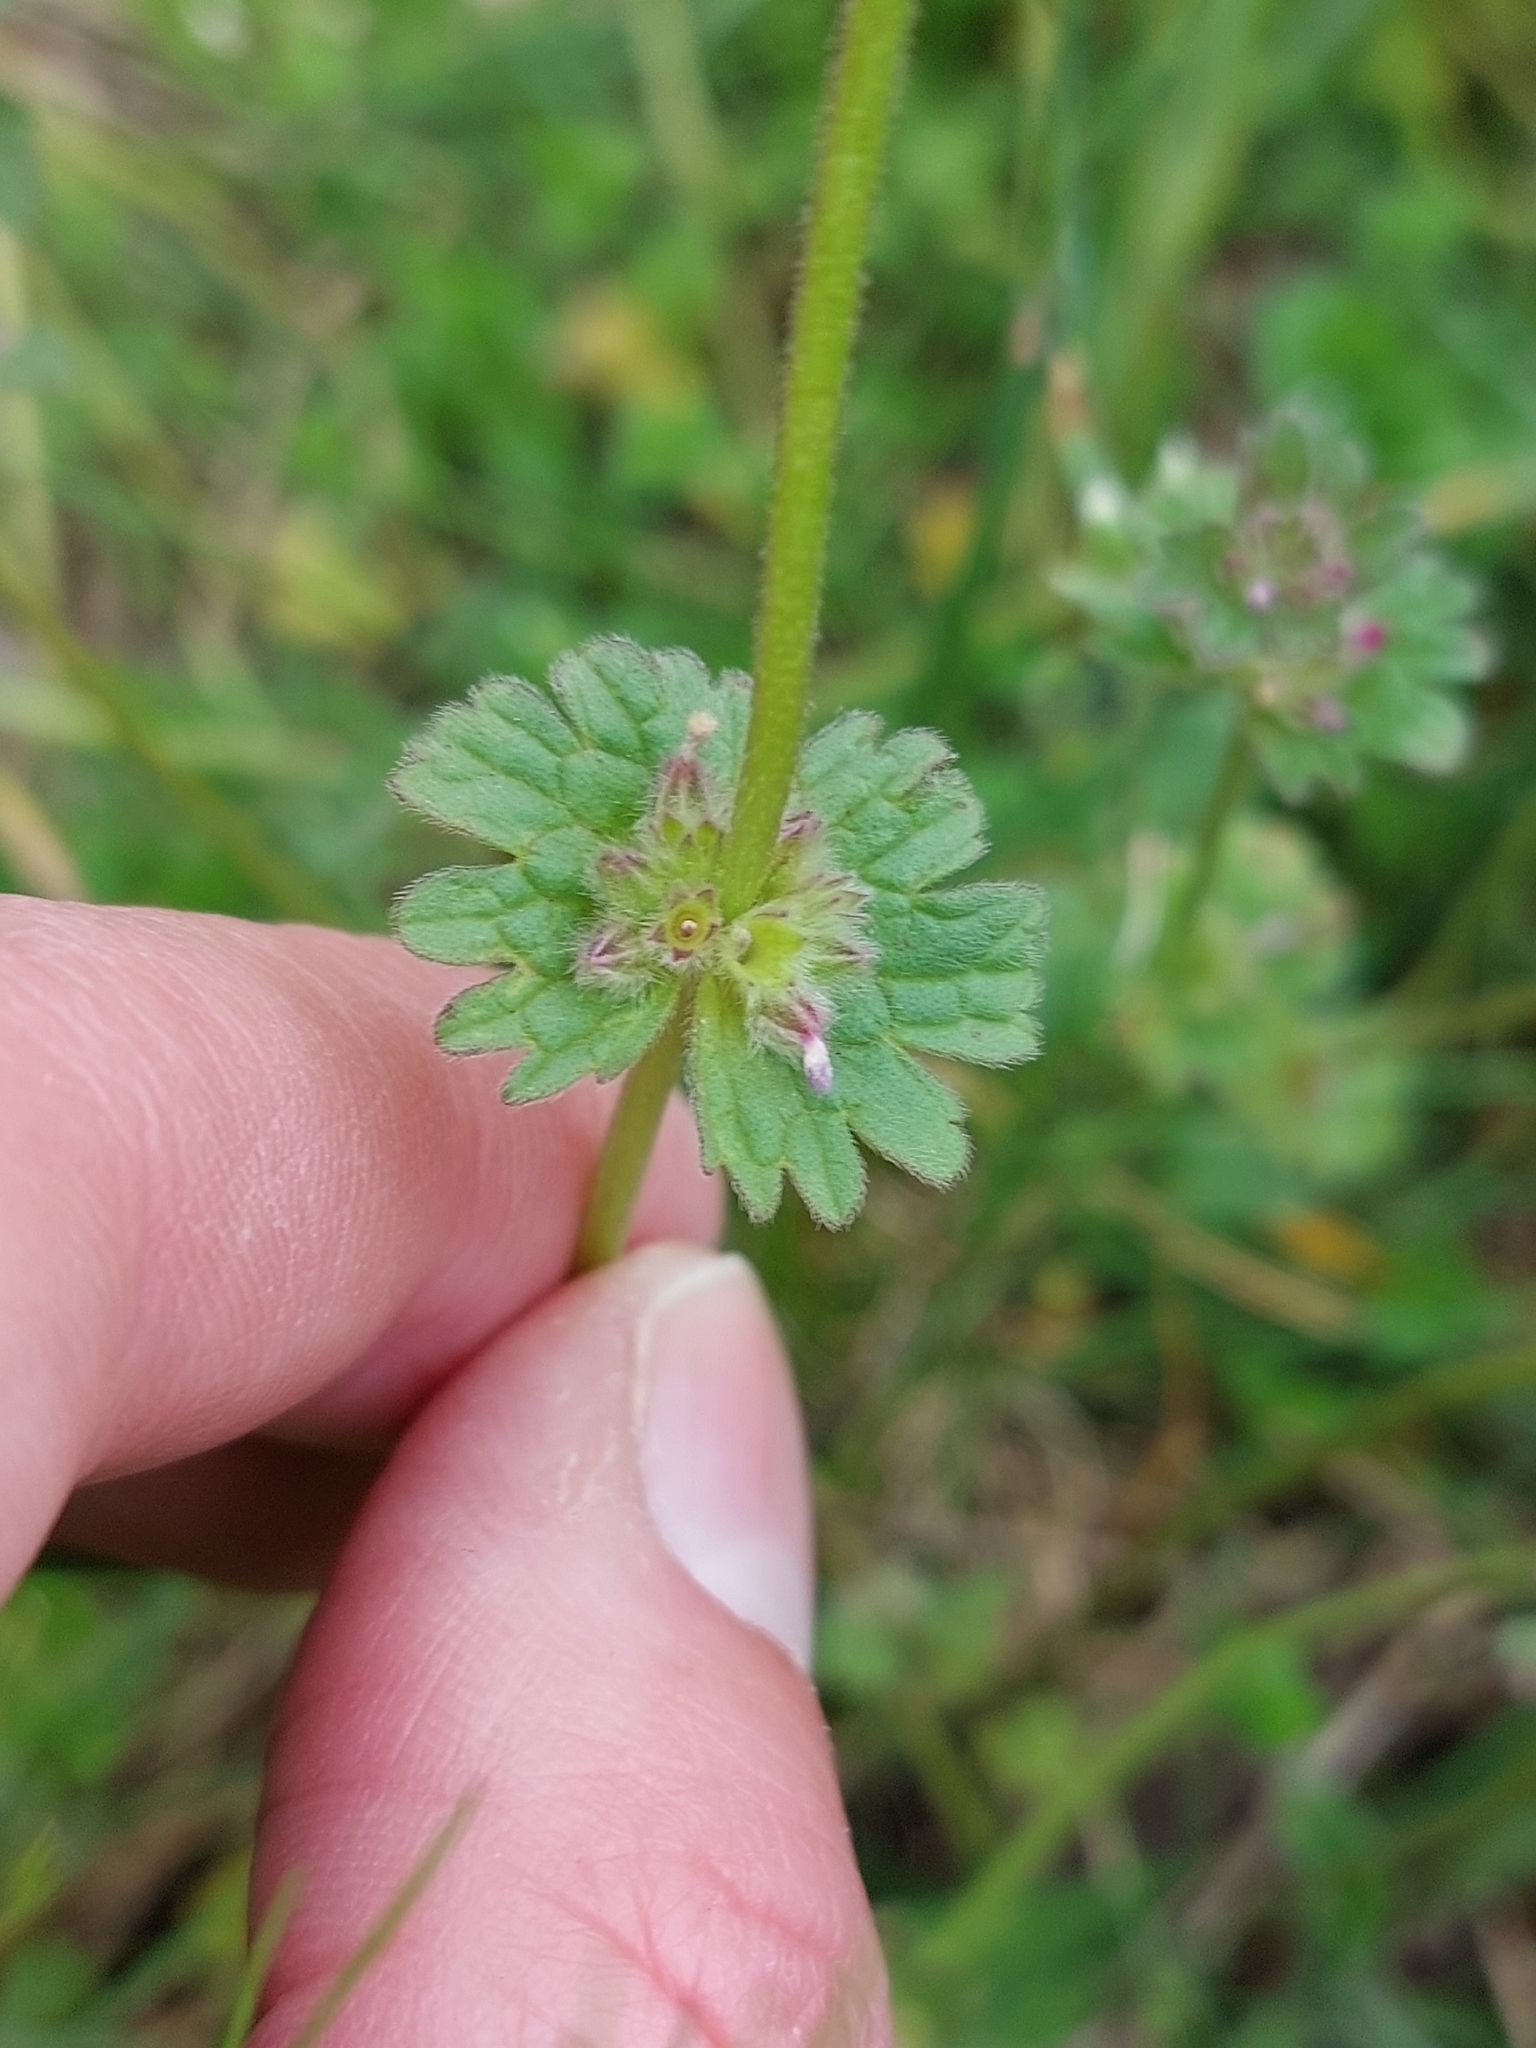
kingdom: Plantae
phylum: Tracheophyta
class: Magnoliopsida
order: Lamiales
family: Lamiaceae
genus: Lamium
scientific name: Lamium amplexicaule
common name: Henbit dead-nettle
